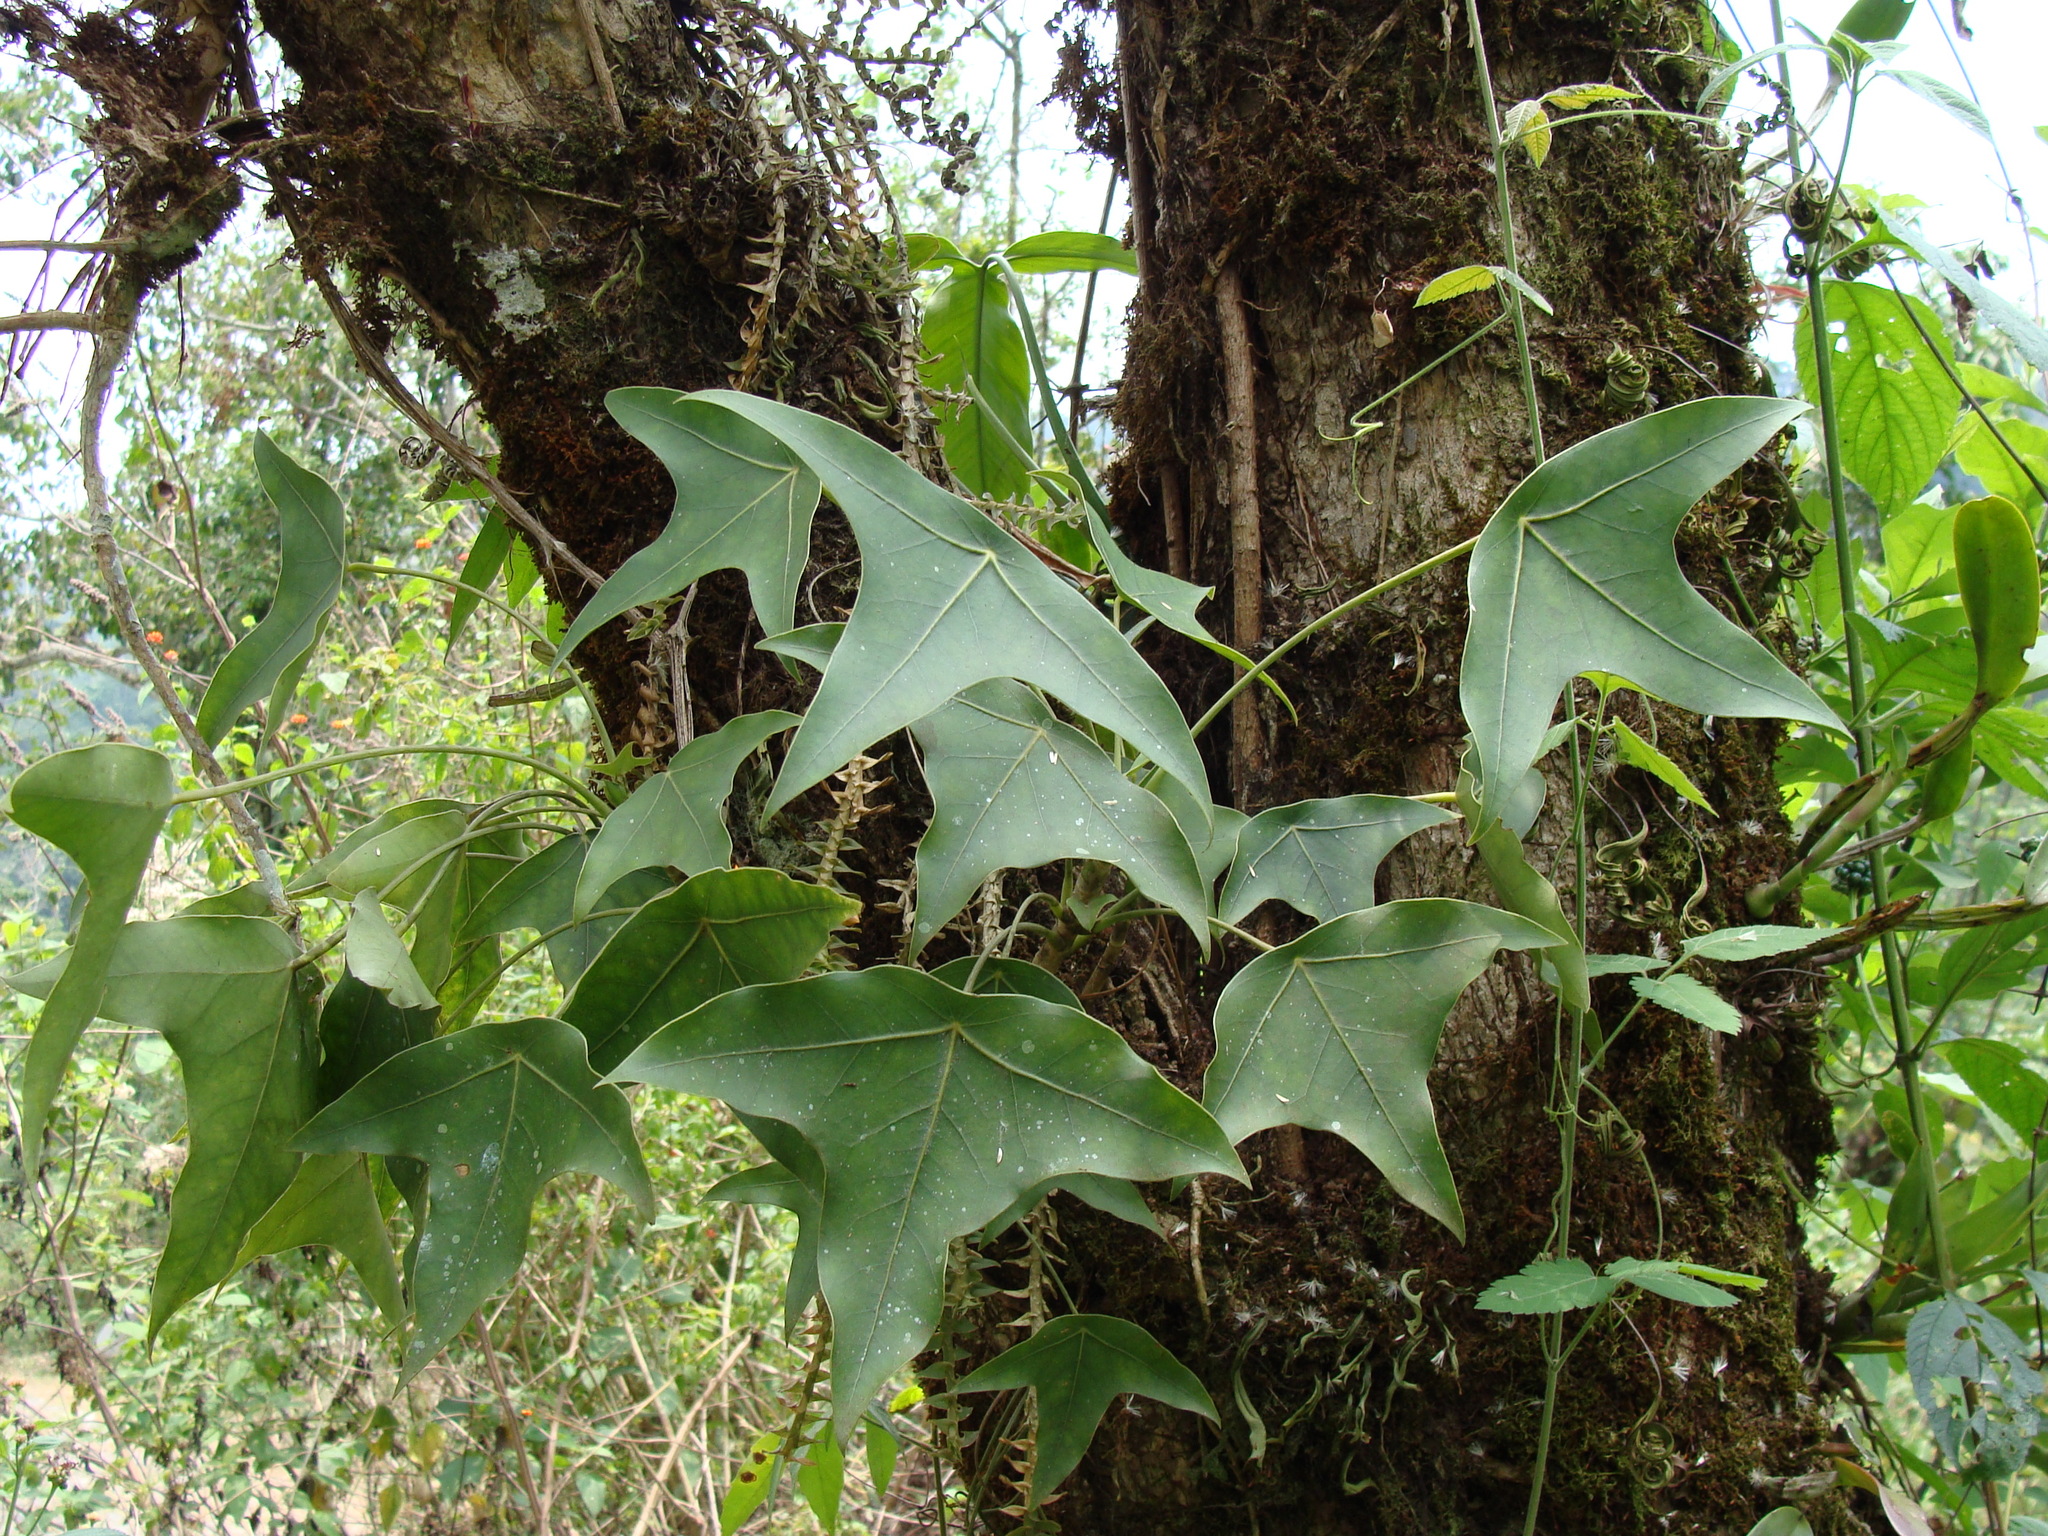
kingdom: Plantae
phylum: Tracheophyta
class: Magnoliopsida
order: Apiales
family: Araliaceae
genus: Oreopanax
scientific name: Oreopanax sanderianus
